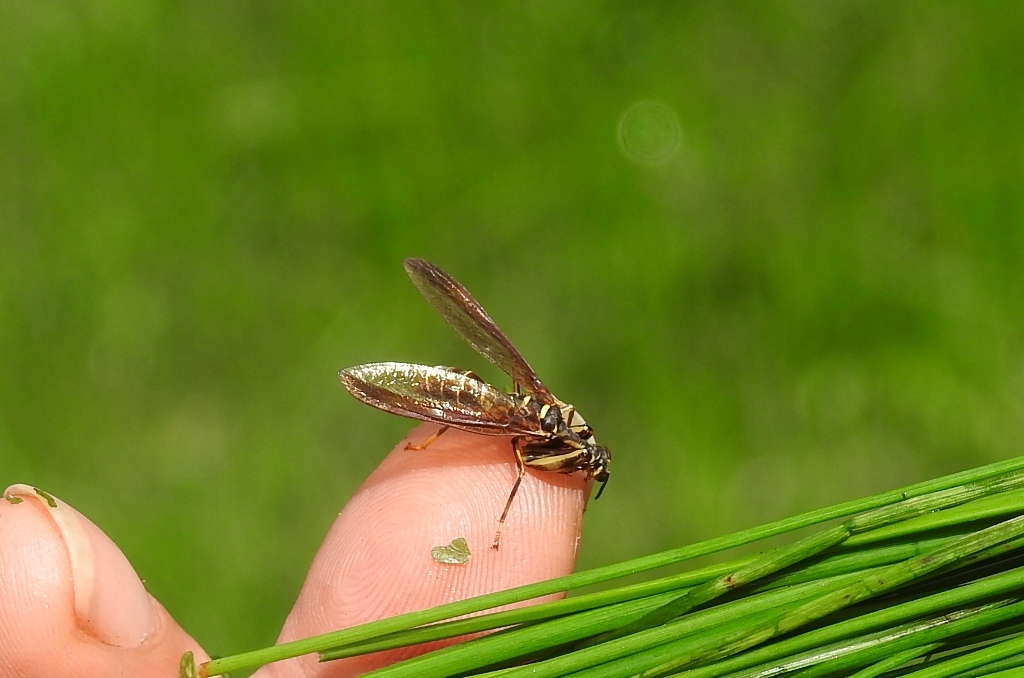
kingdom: Animalia
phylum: Arthropoda
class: Insecta
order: Neuroptera
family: Mantispidae
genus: Climaciella
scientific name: Climaciella brunnea
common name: Brown wasp mantidfly
